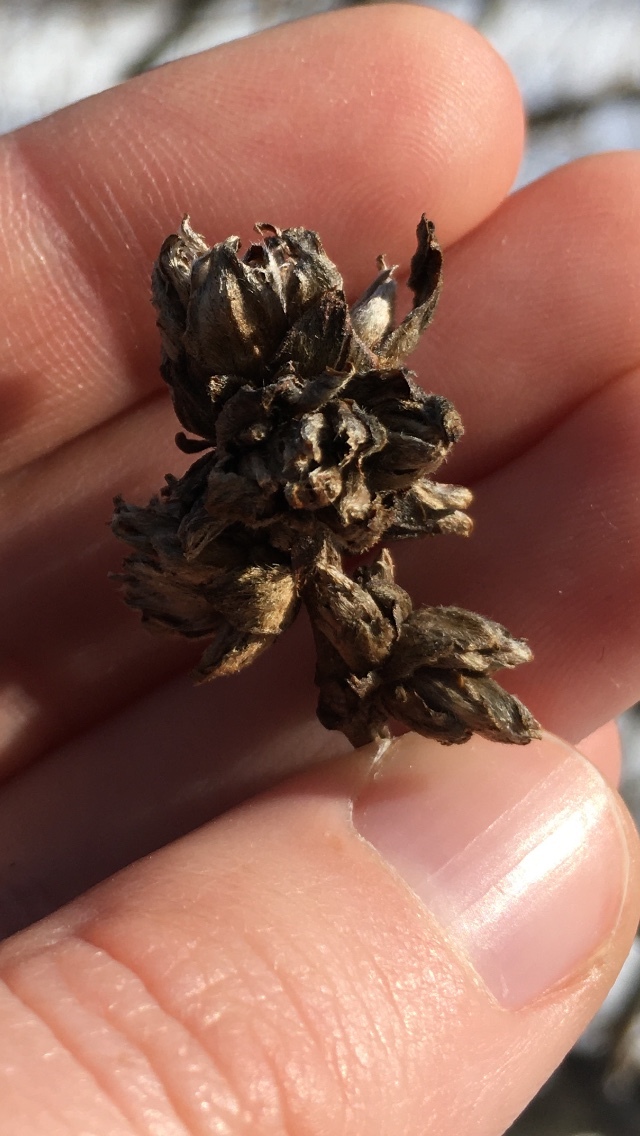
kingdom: Plantae
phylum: Tracheophyta
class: Magnoliopsida
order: Fagales
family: Fagaceae
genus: Quercus
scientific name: Quercus macrocarpa
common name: Bur oak
